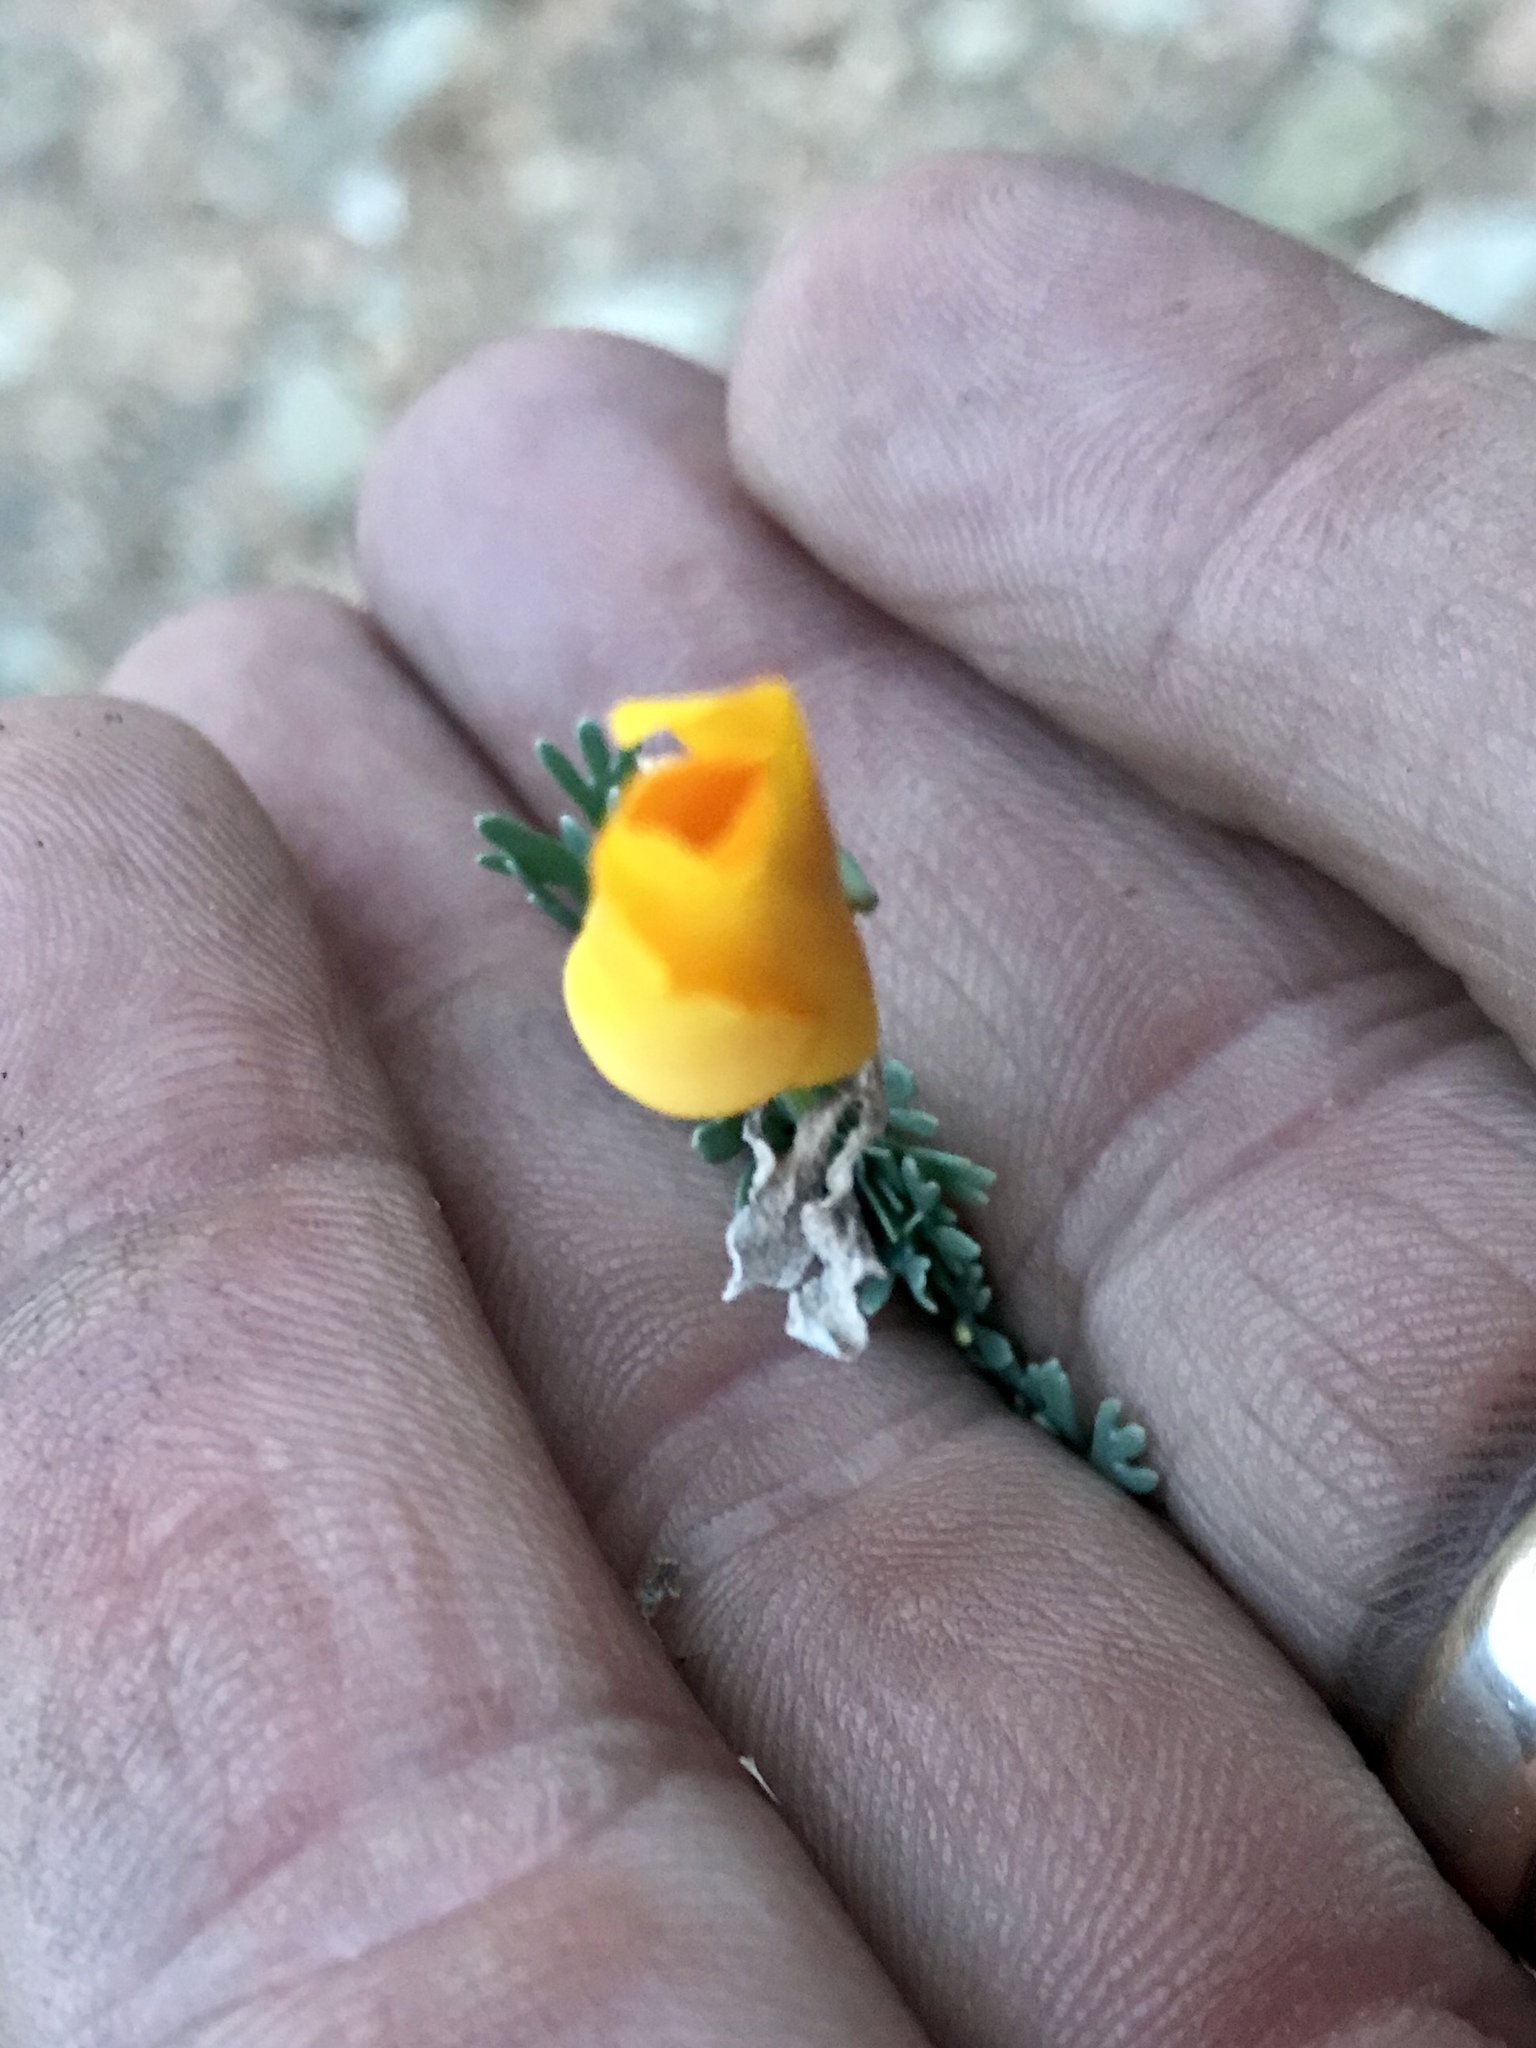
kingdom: Plantae
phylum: Tracheophyta
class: Magnoliopsida
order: Ranunculales
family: Papaveraceae
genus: Eschscholzia
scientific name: Eschscholzia californica
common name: California poppy
